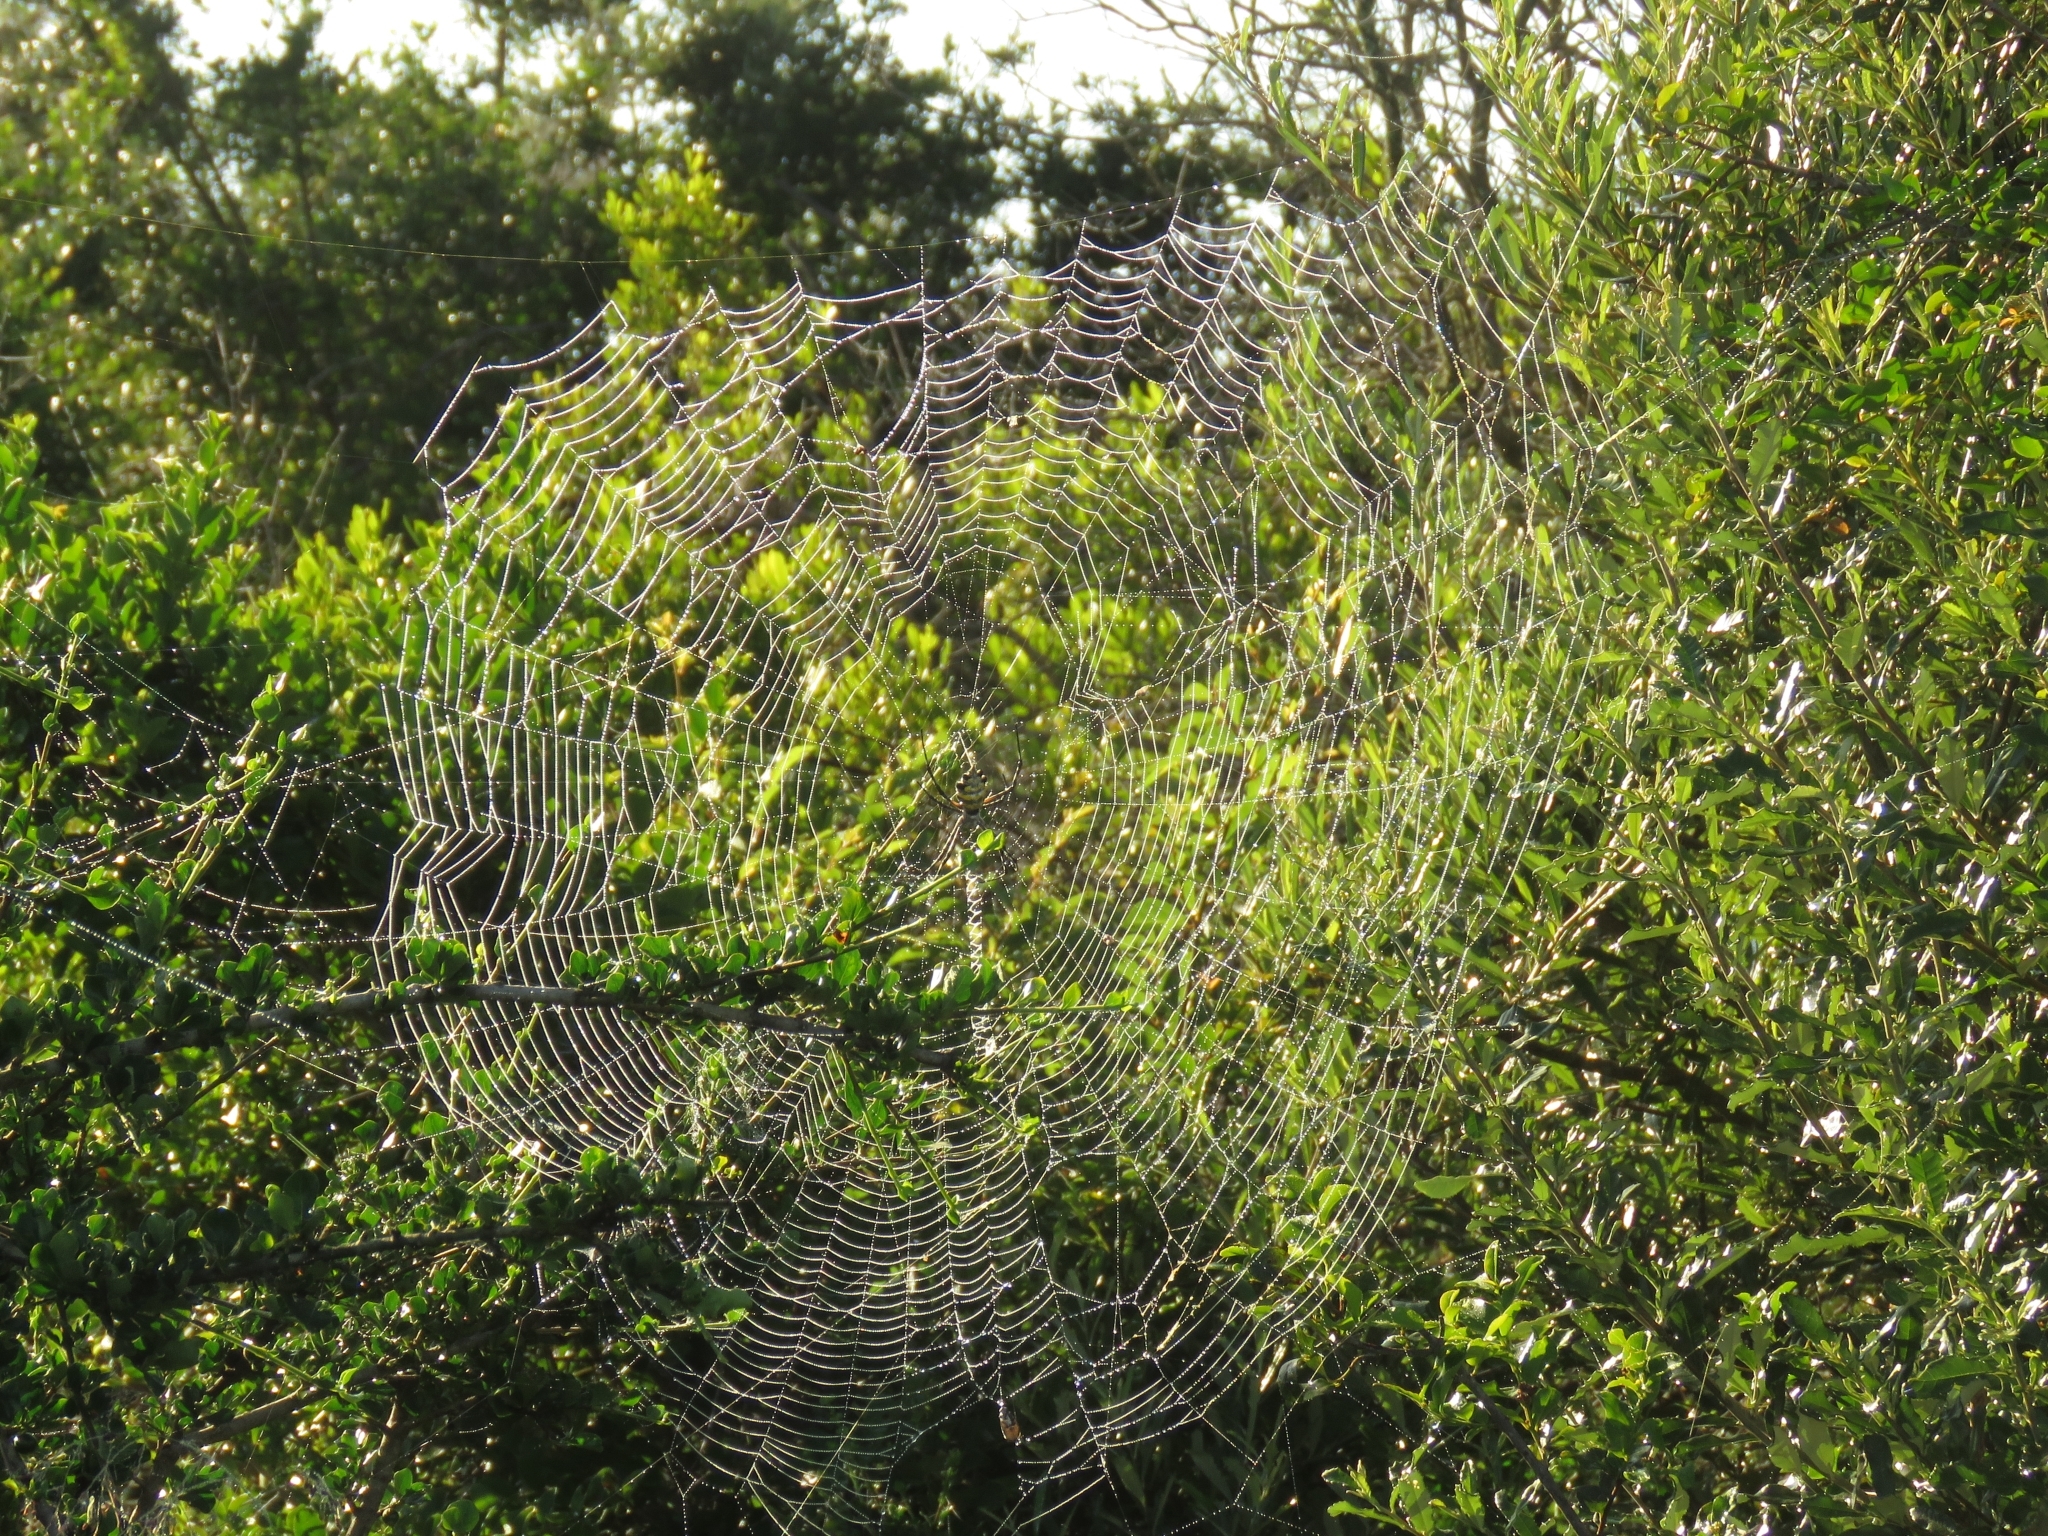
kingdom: Animalia
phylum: Arthropoda
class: Arachnida
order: Araneae
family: Araneidae
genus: Argiope
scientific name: Argiope australis
